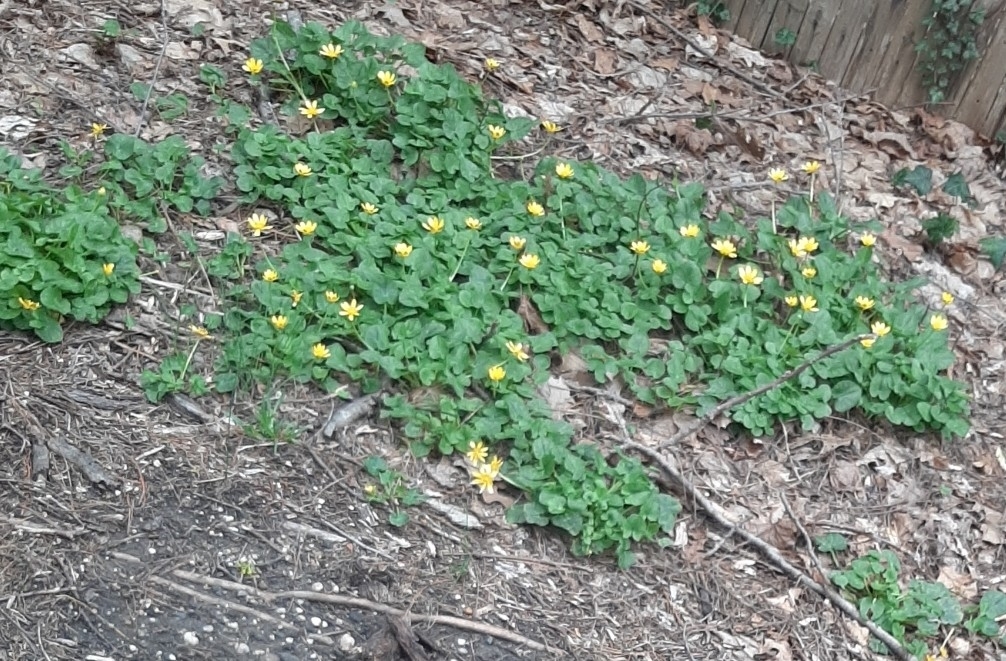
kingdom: Plantae
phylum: Tracheophyta
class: Magnoliopsida
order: Ranunculales
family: Ranunculaceae
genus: Ficaria
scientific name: Ficaria verna
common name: Lesser celandine
